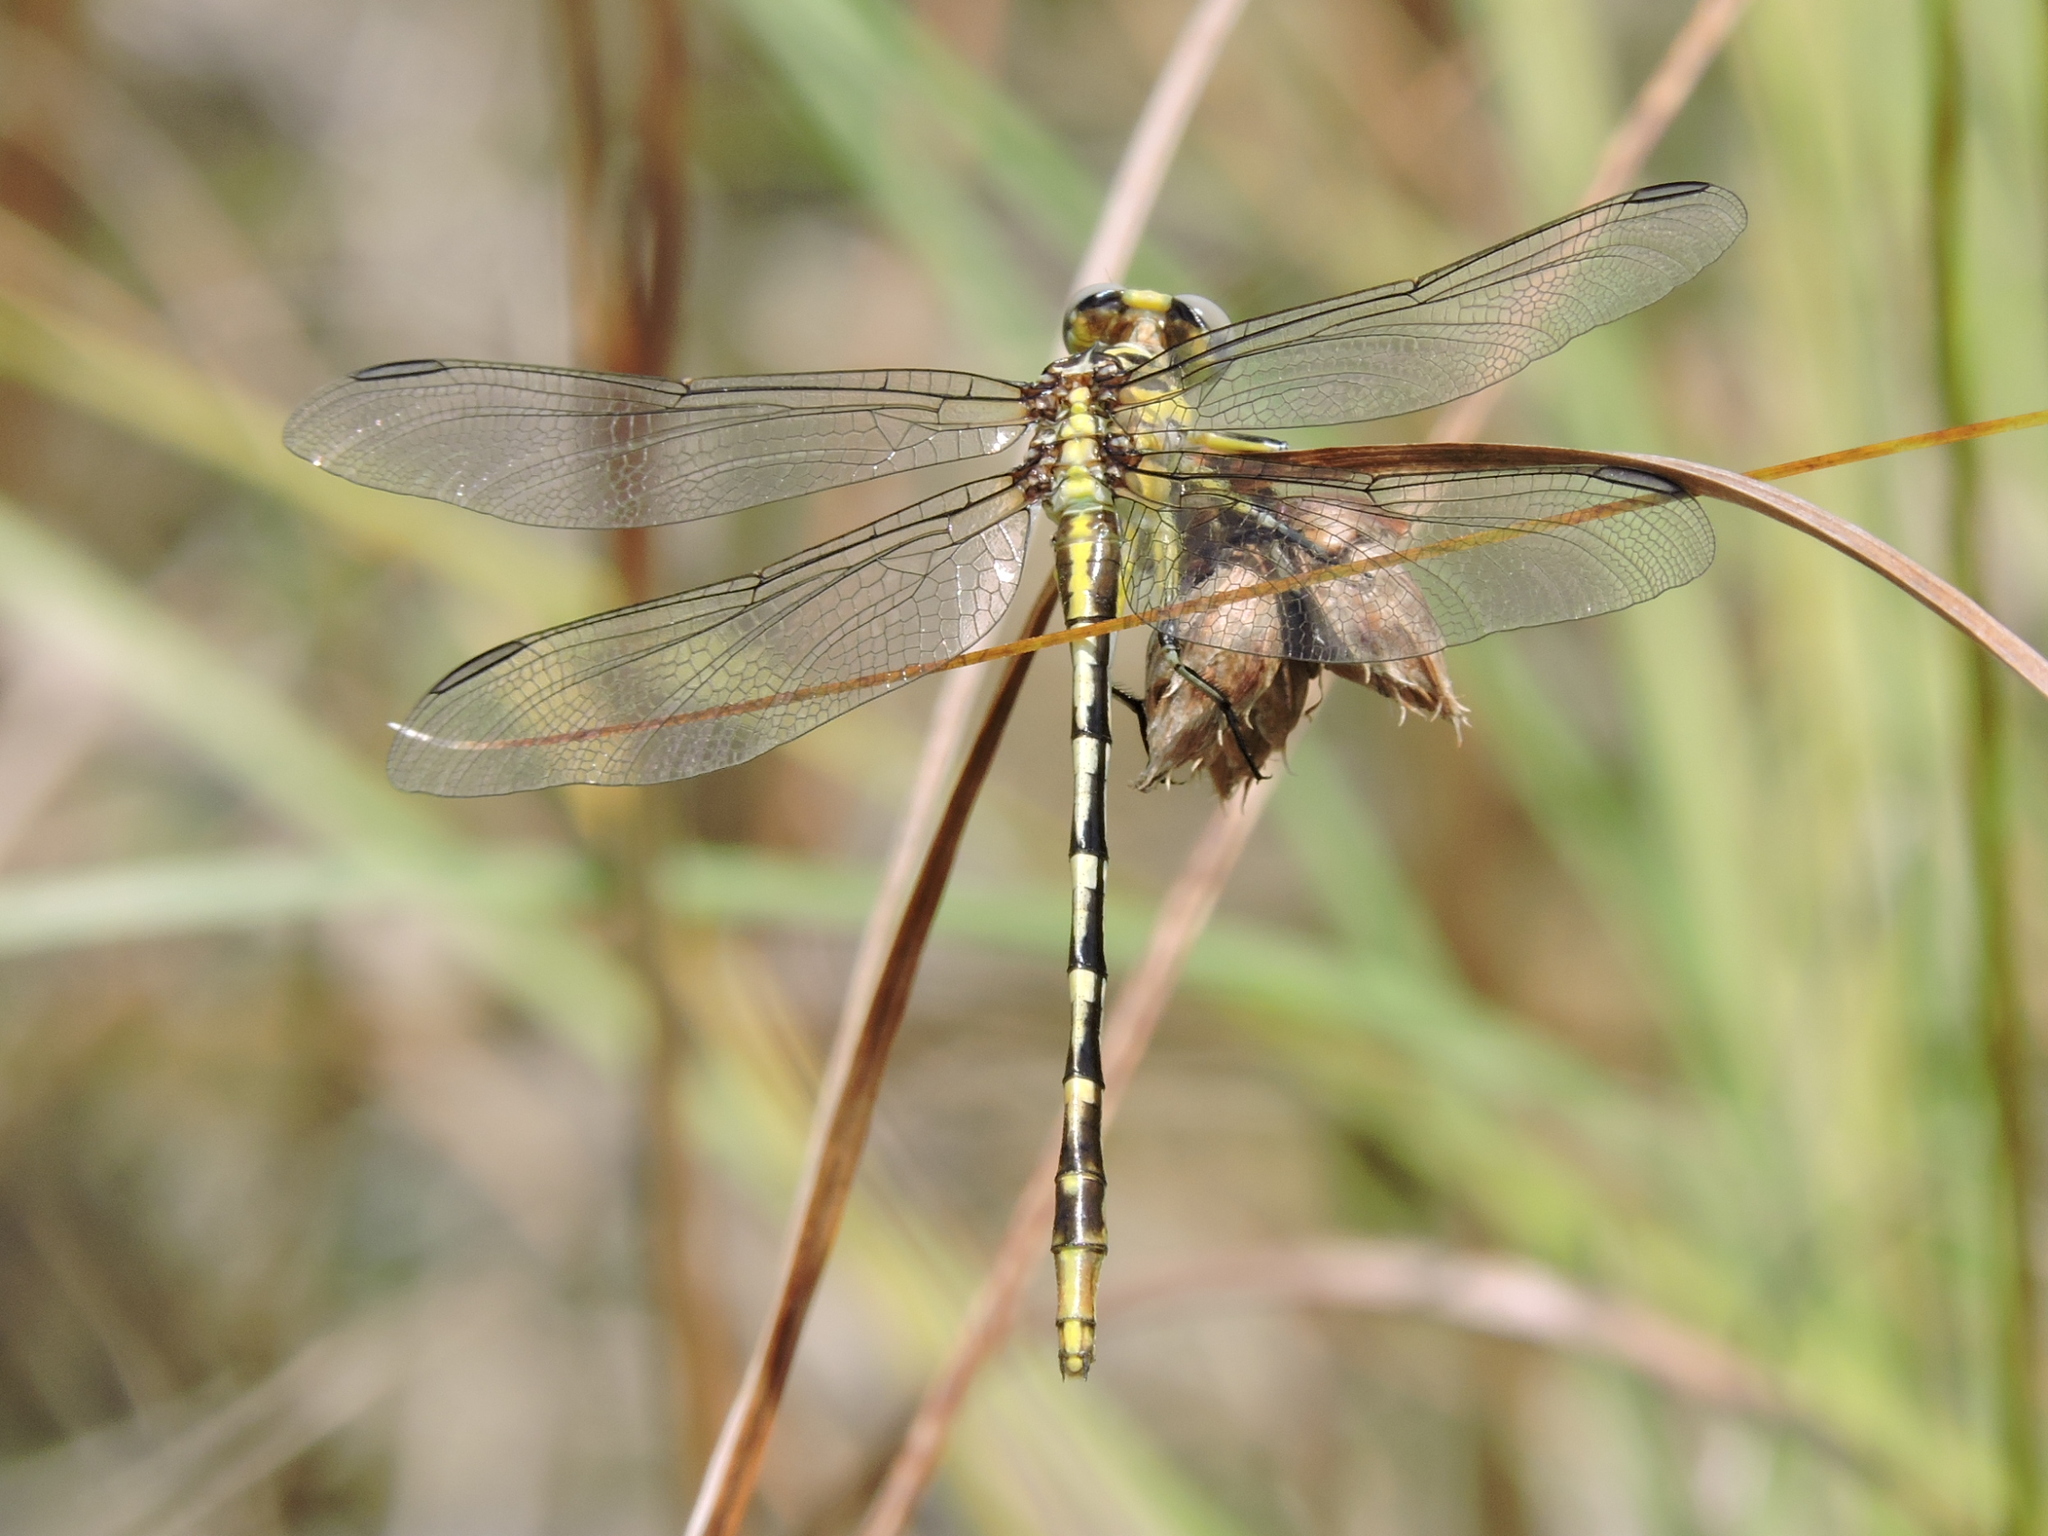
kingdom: Animalia
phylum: Arthropoda
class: Insecta
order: Odonata
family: Gomphidae
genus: Phanogomphus
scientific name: Phanogomphus militaris
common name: Sulphur-tipped clubtail
